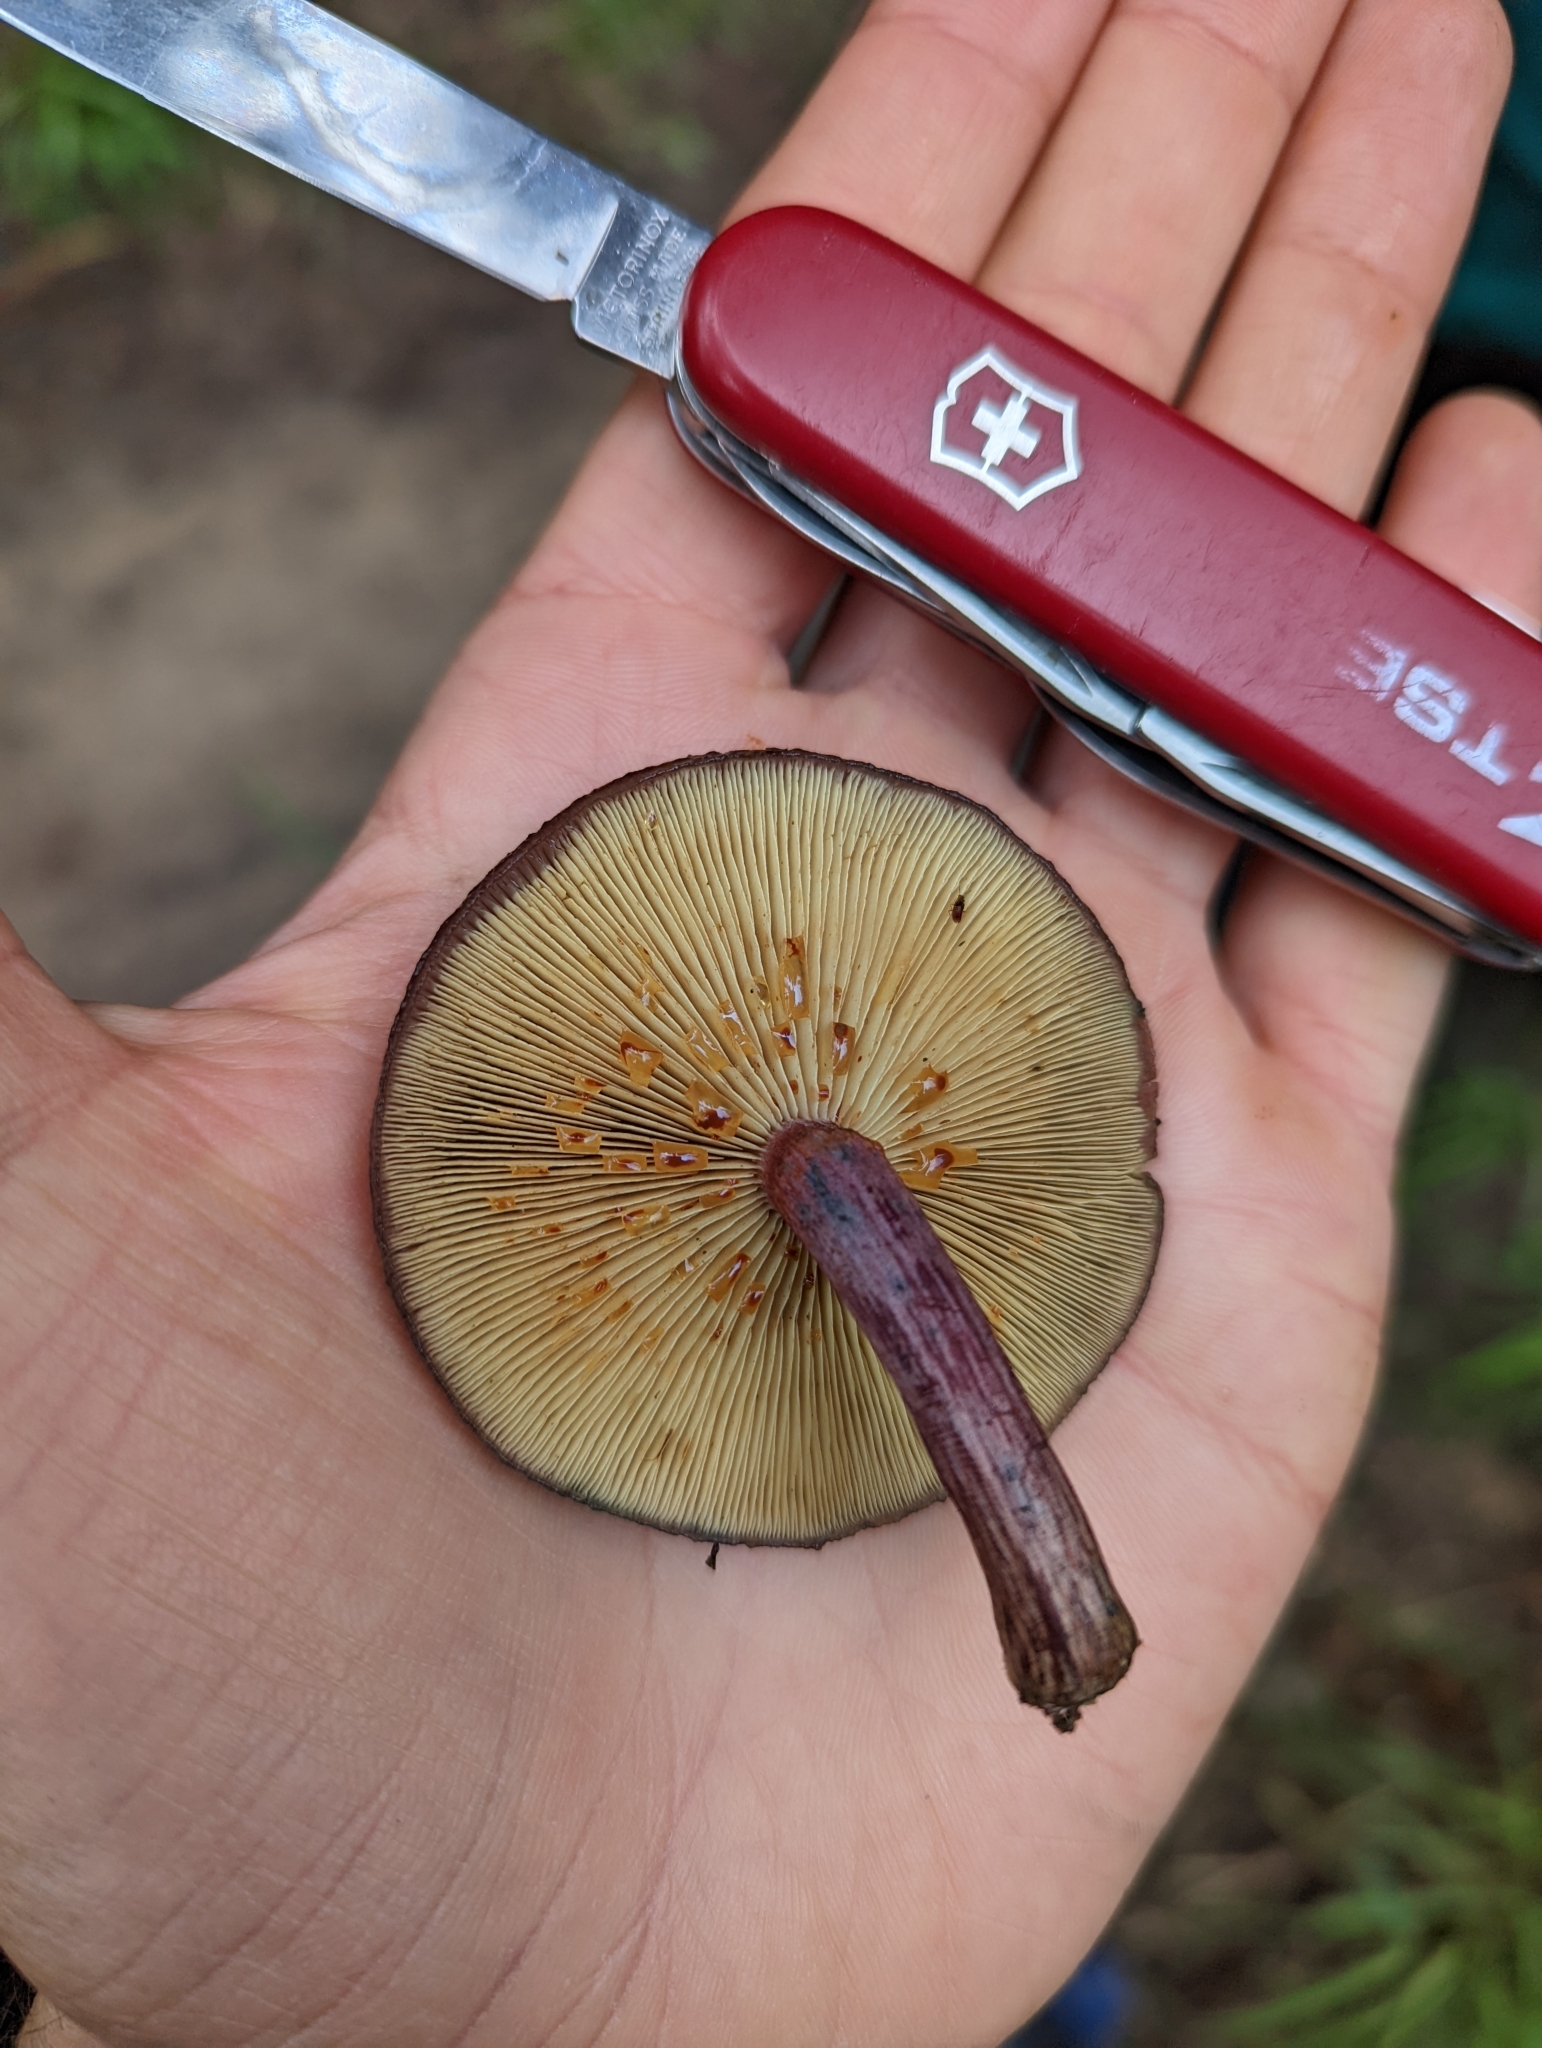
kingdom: Fungi
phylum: Basidiomycota
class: Agaricomycetes
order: Agaricales
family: Hymenogastraceae
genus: Gymnopilus
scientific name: Gymnopilus purpuratus
